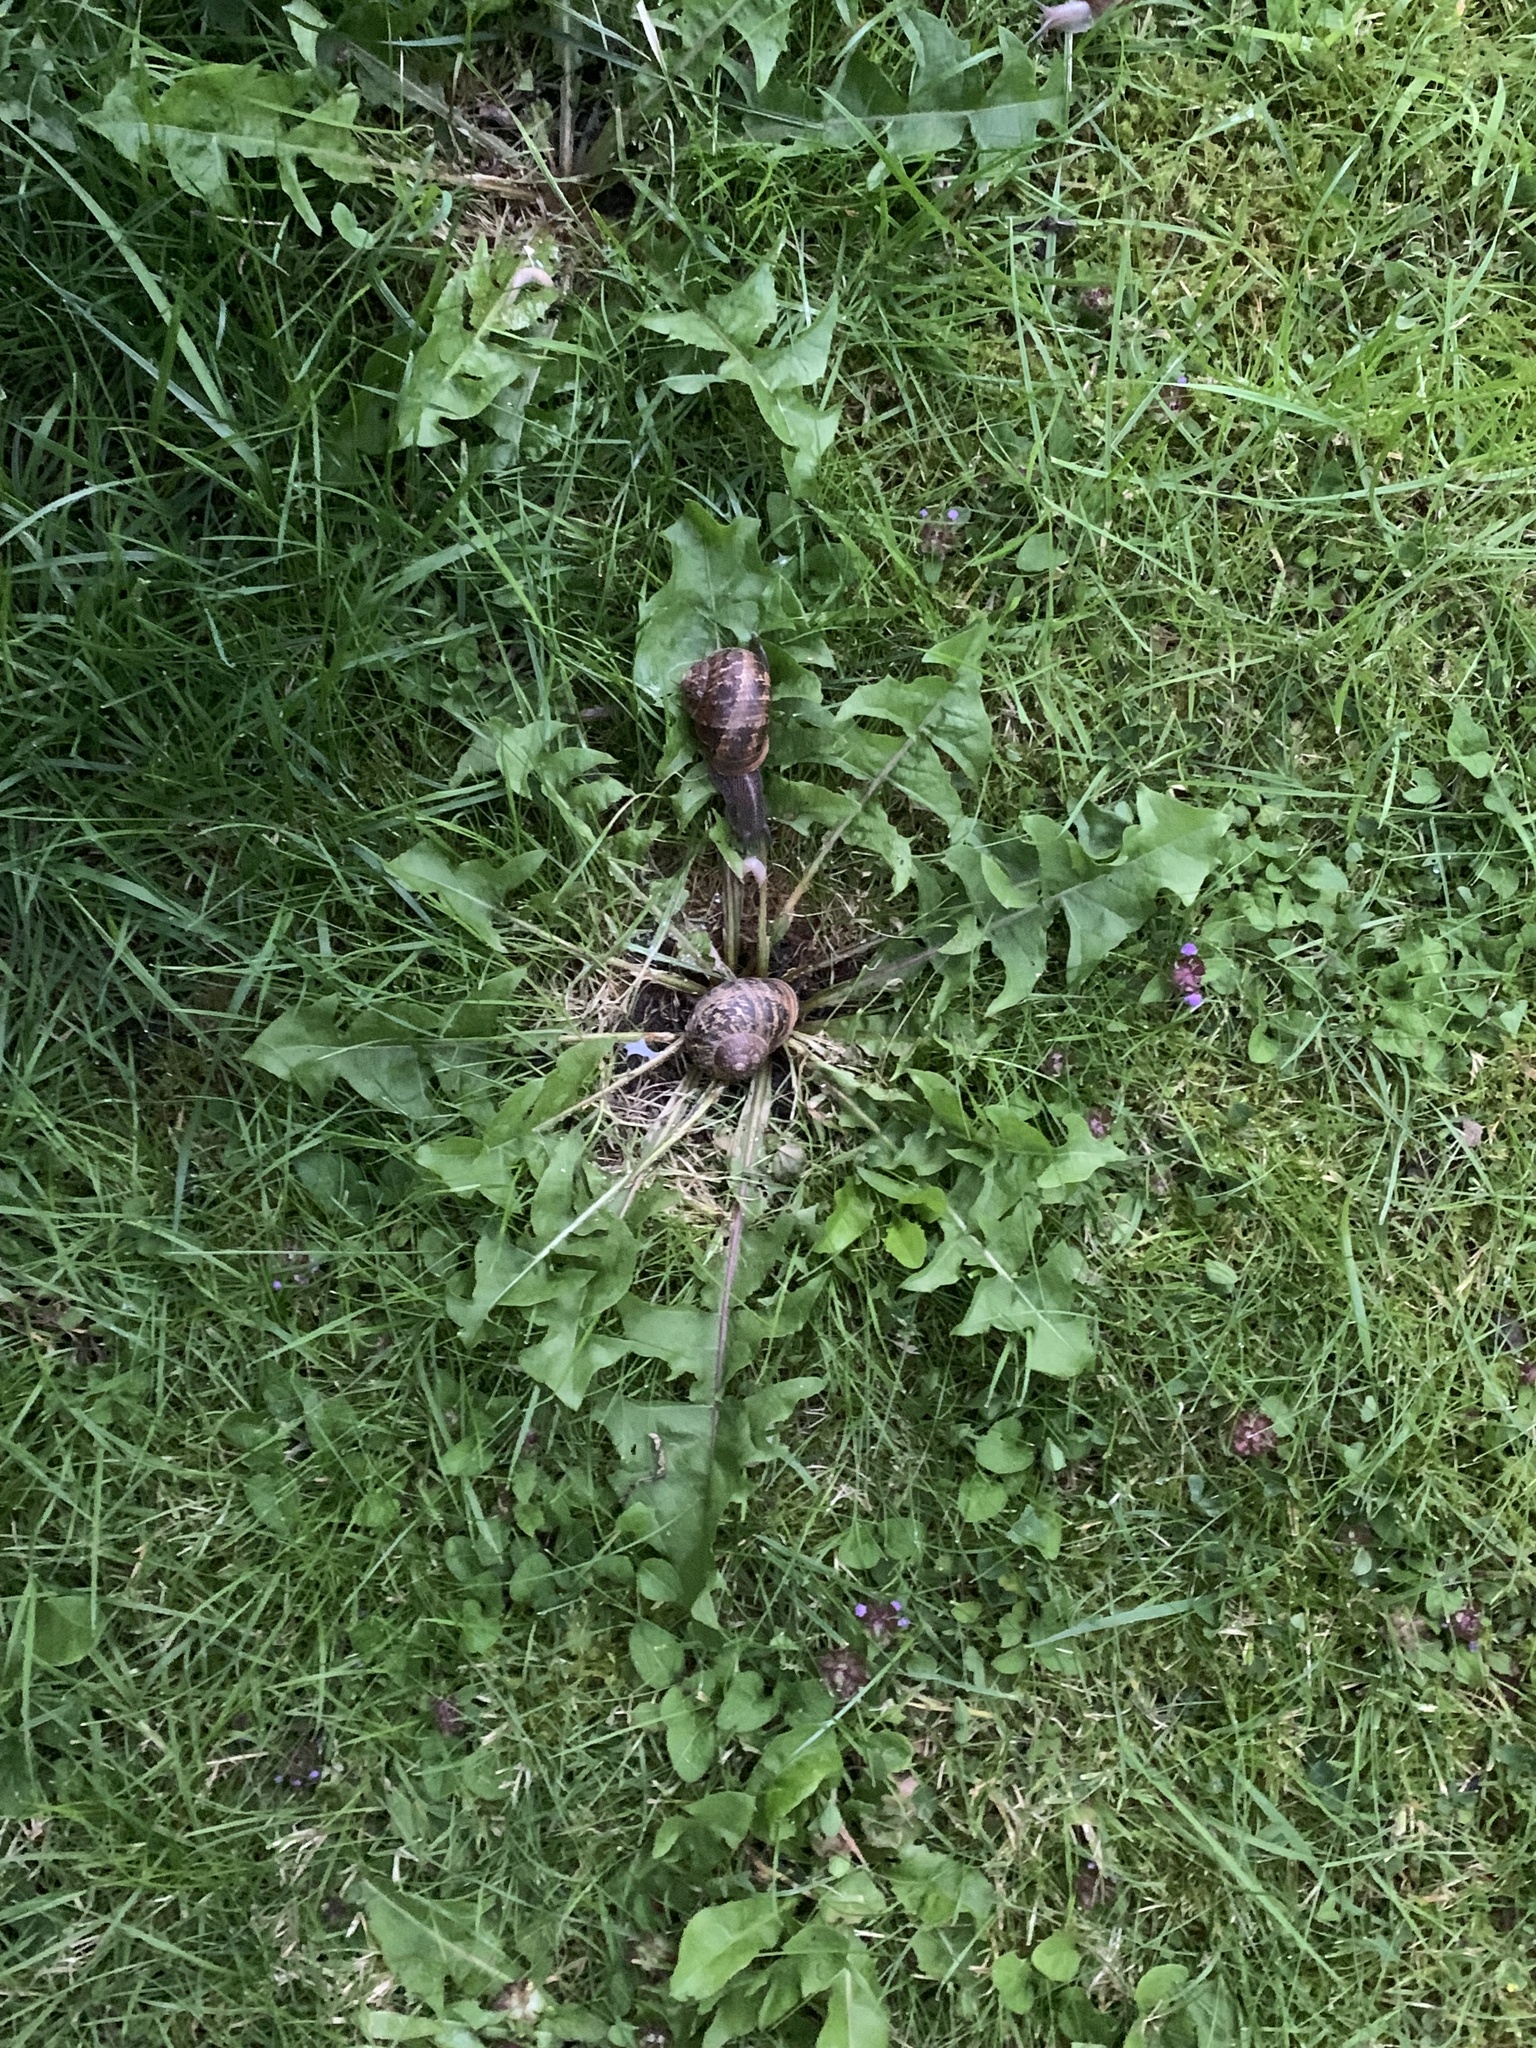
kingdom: Animalia
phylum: Mollusca
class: Gastropoda
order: Stylommatophora
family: Helicidae
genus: Cornu
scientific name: Cornu aspersum
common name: Brown garden snail
